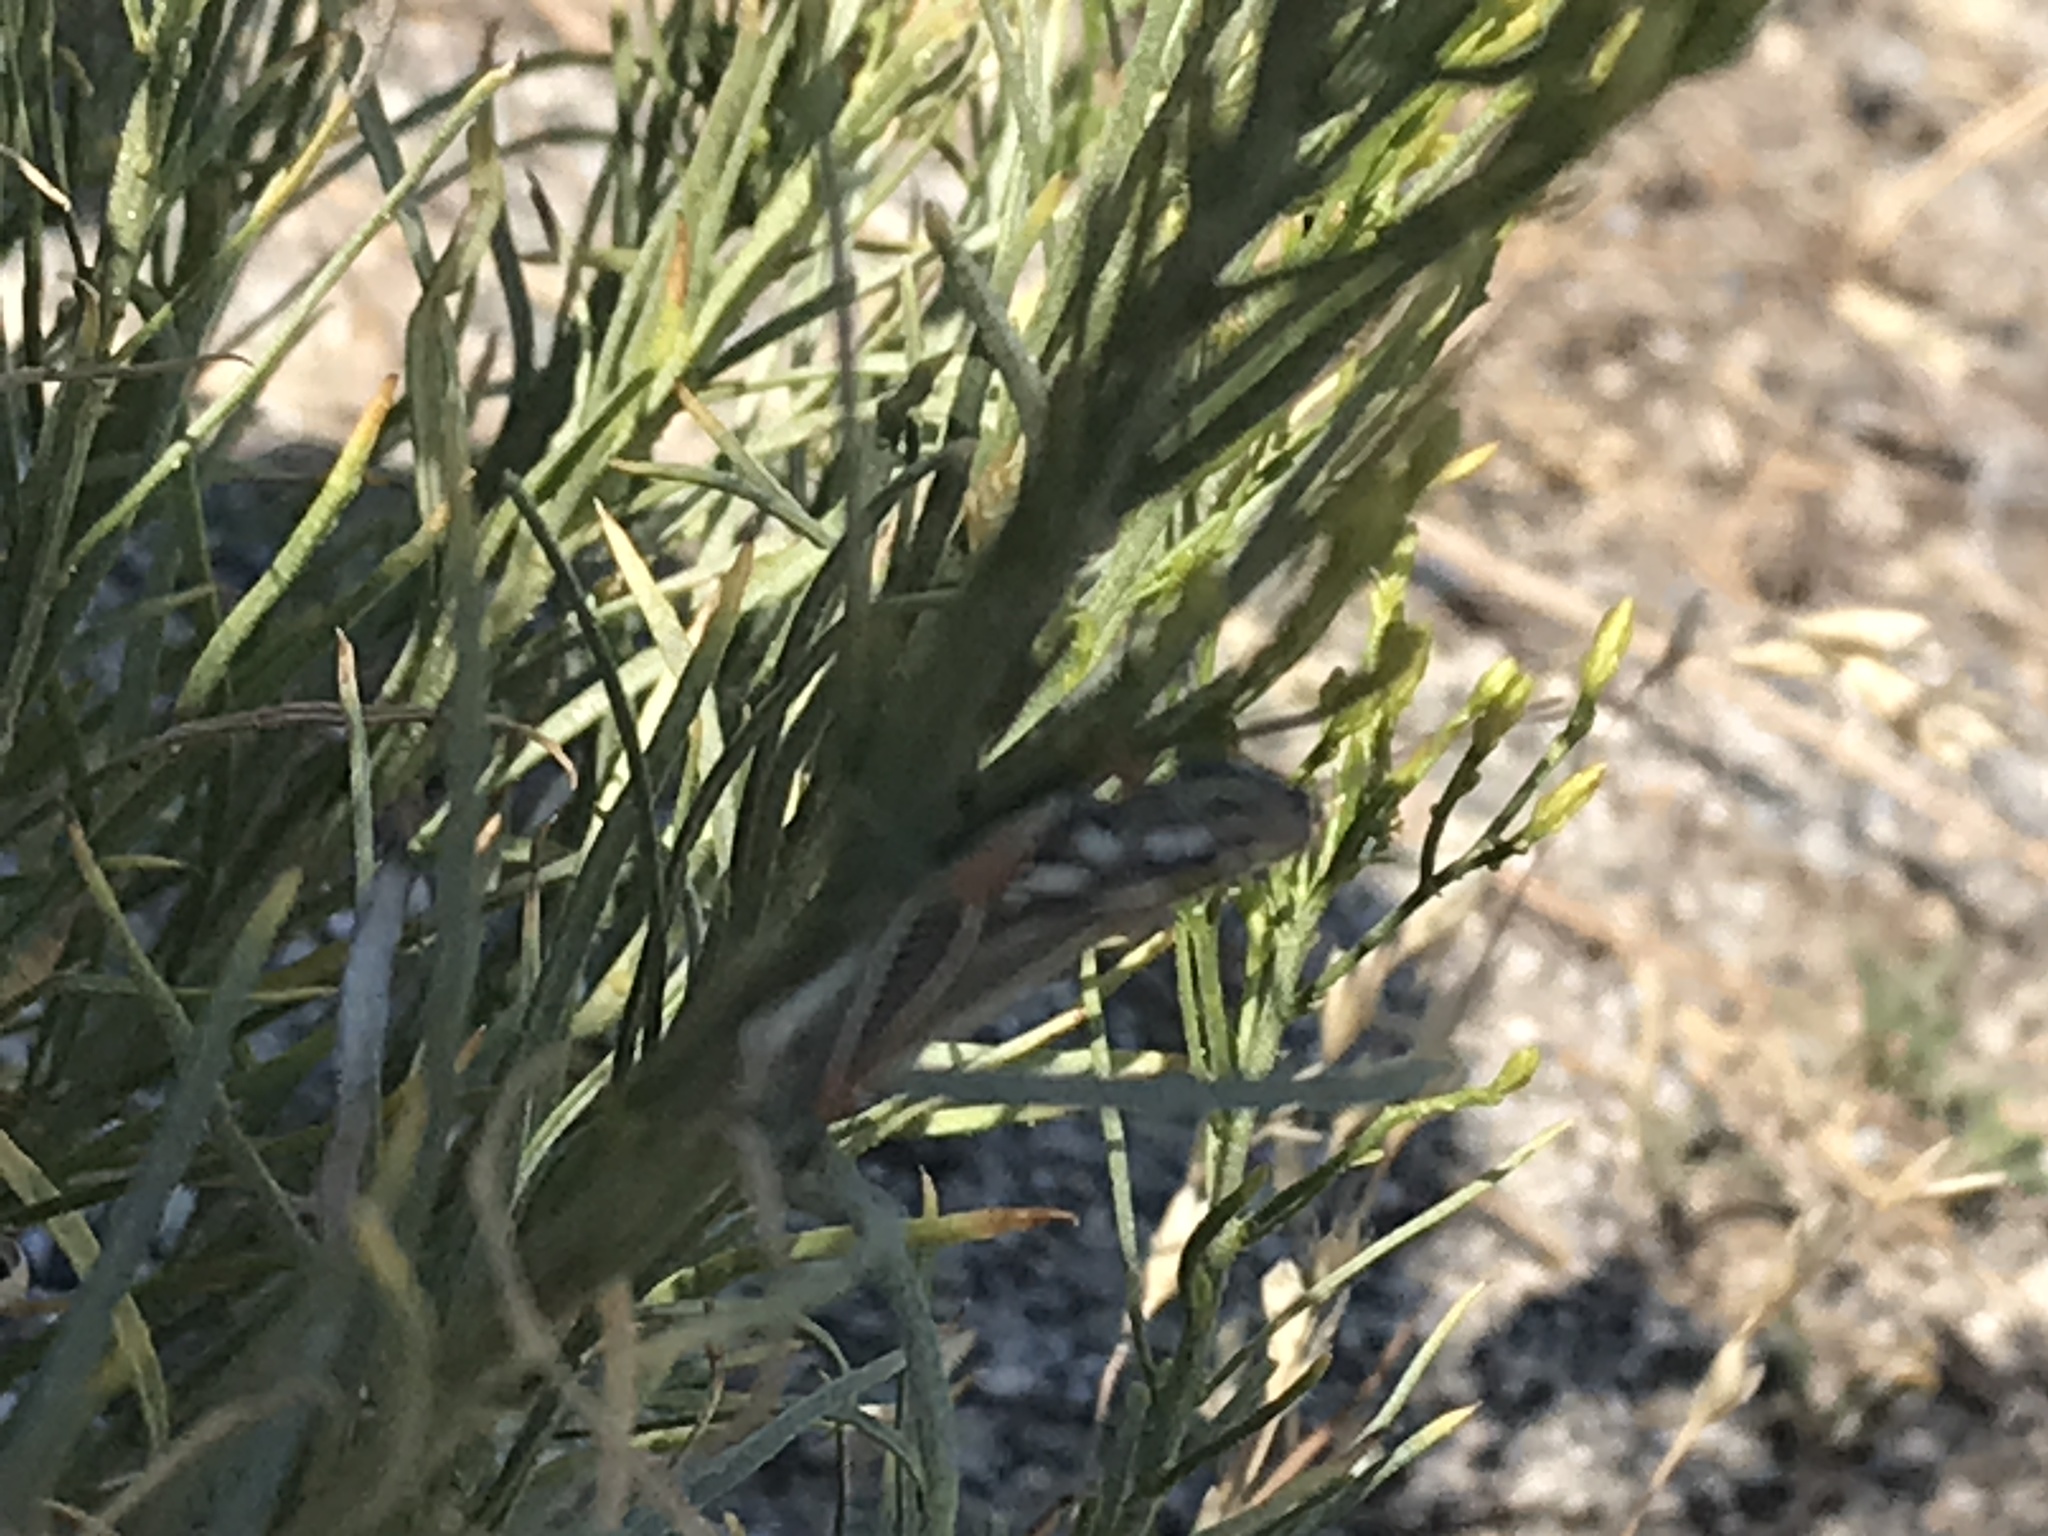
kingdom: Animalia
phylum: Arthropoda
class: Insecta
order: Orthoptera
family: Acrididae
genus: Hesperotettix
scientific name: Hesperotettix viridis
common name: Meadow purple-striped grasshopper
